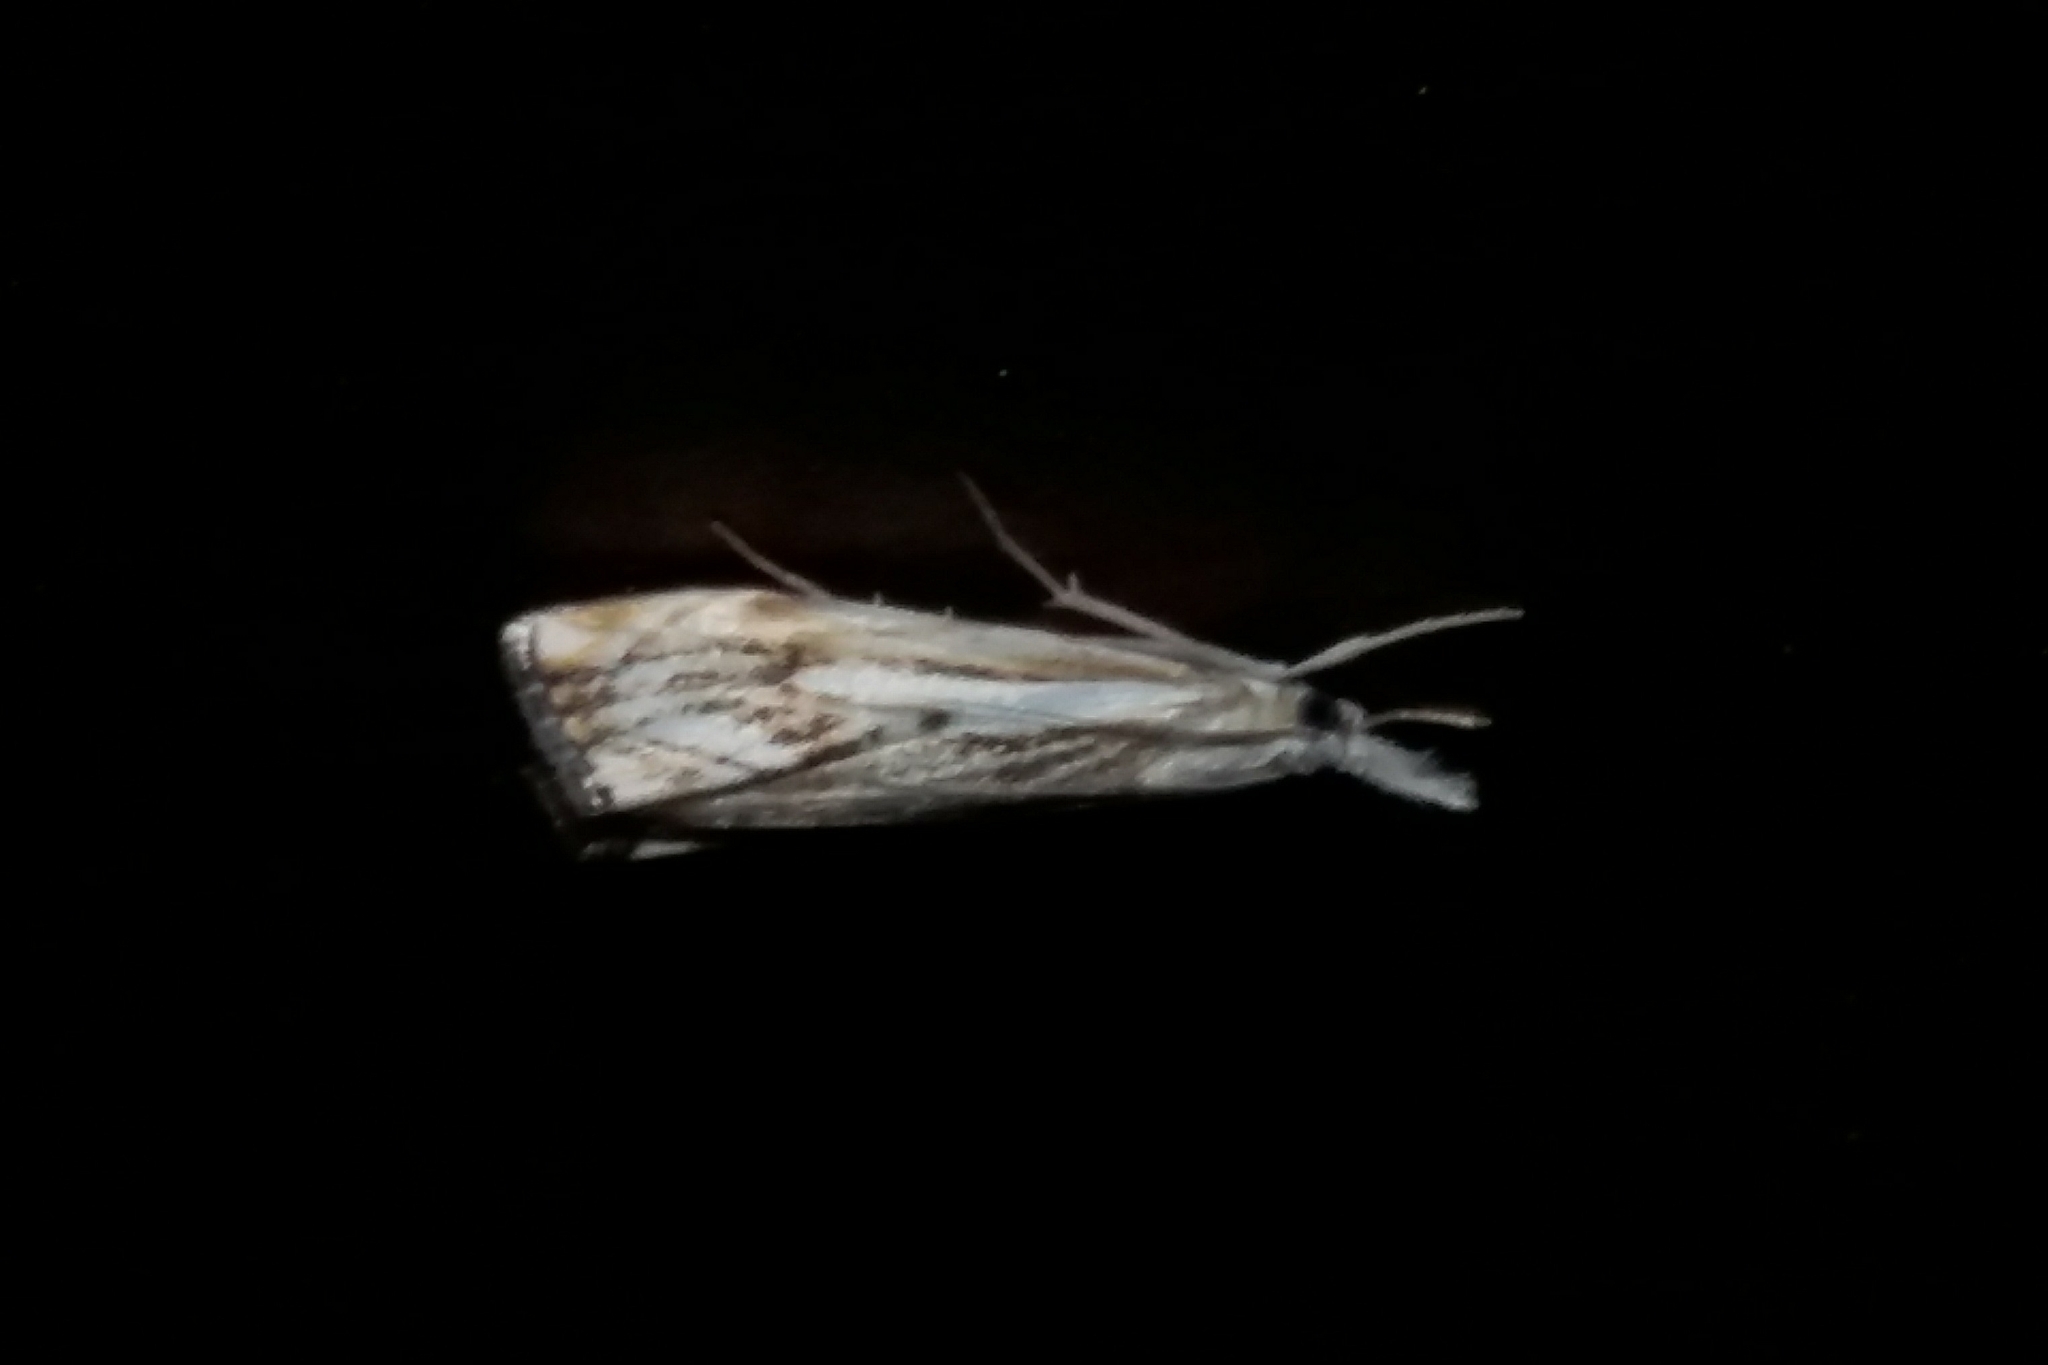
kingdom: Animalia
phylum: Arthropoda
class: Insecta
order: Lepidoptera
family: Crambidae
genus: Catoptria
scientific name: Catoptria falsella
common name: Chequered grass-veneer
